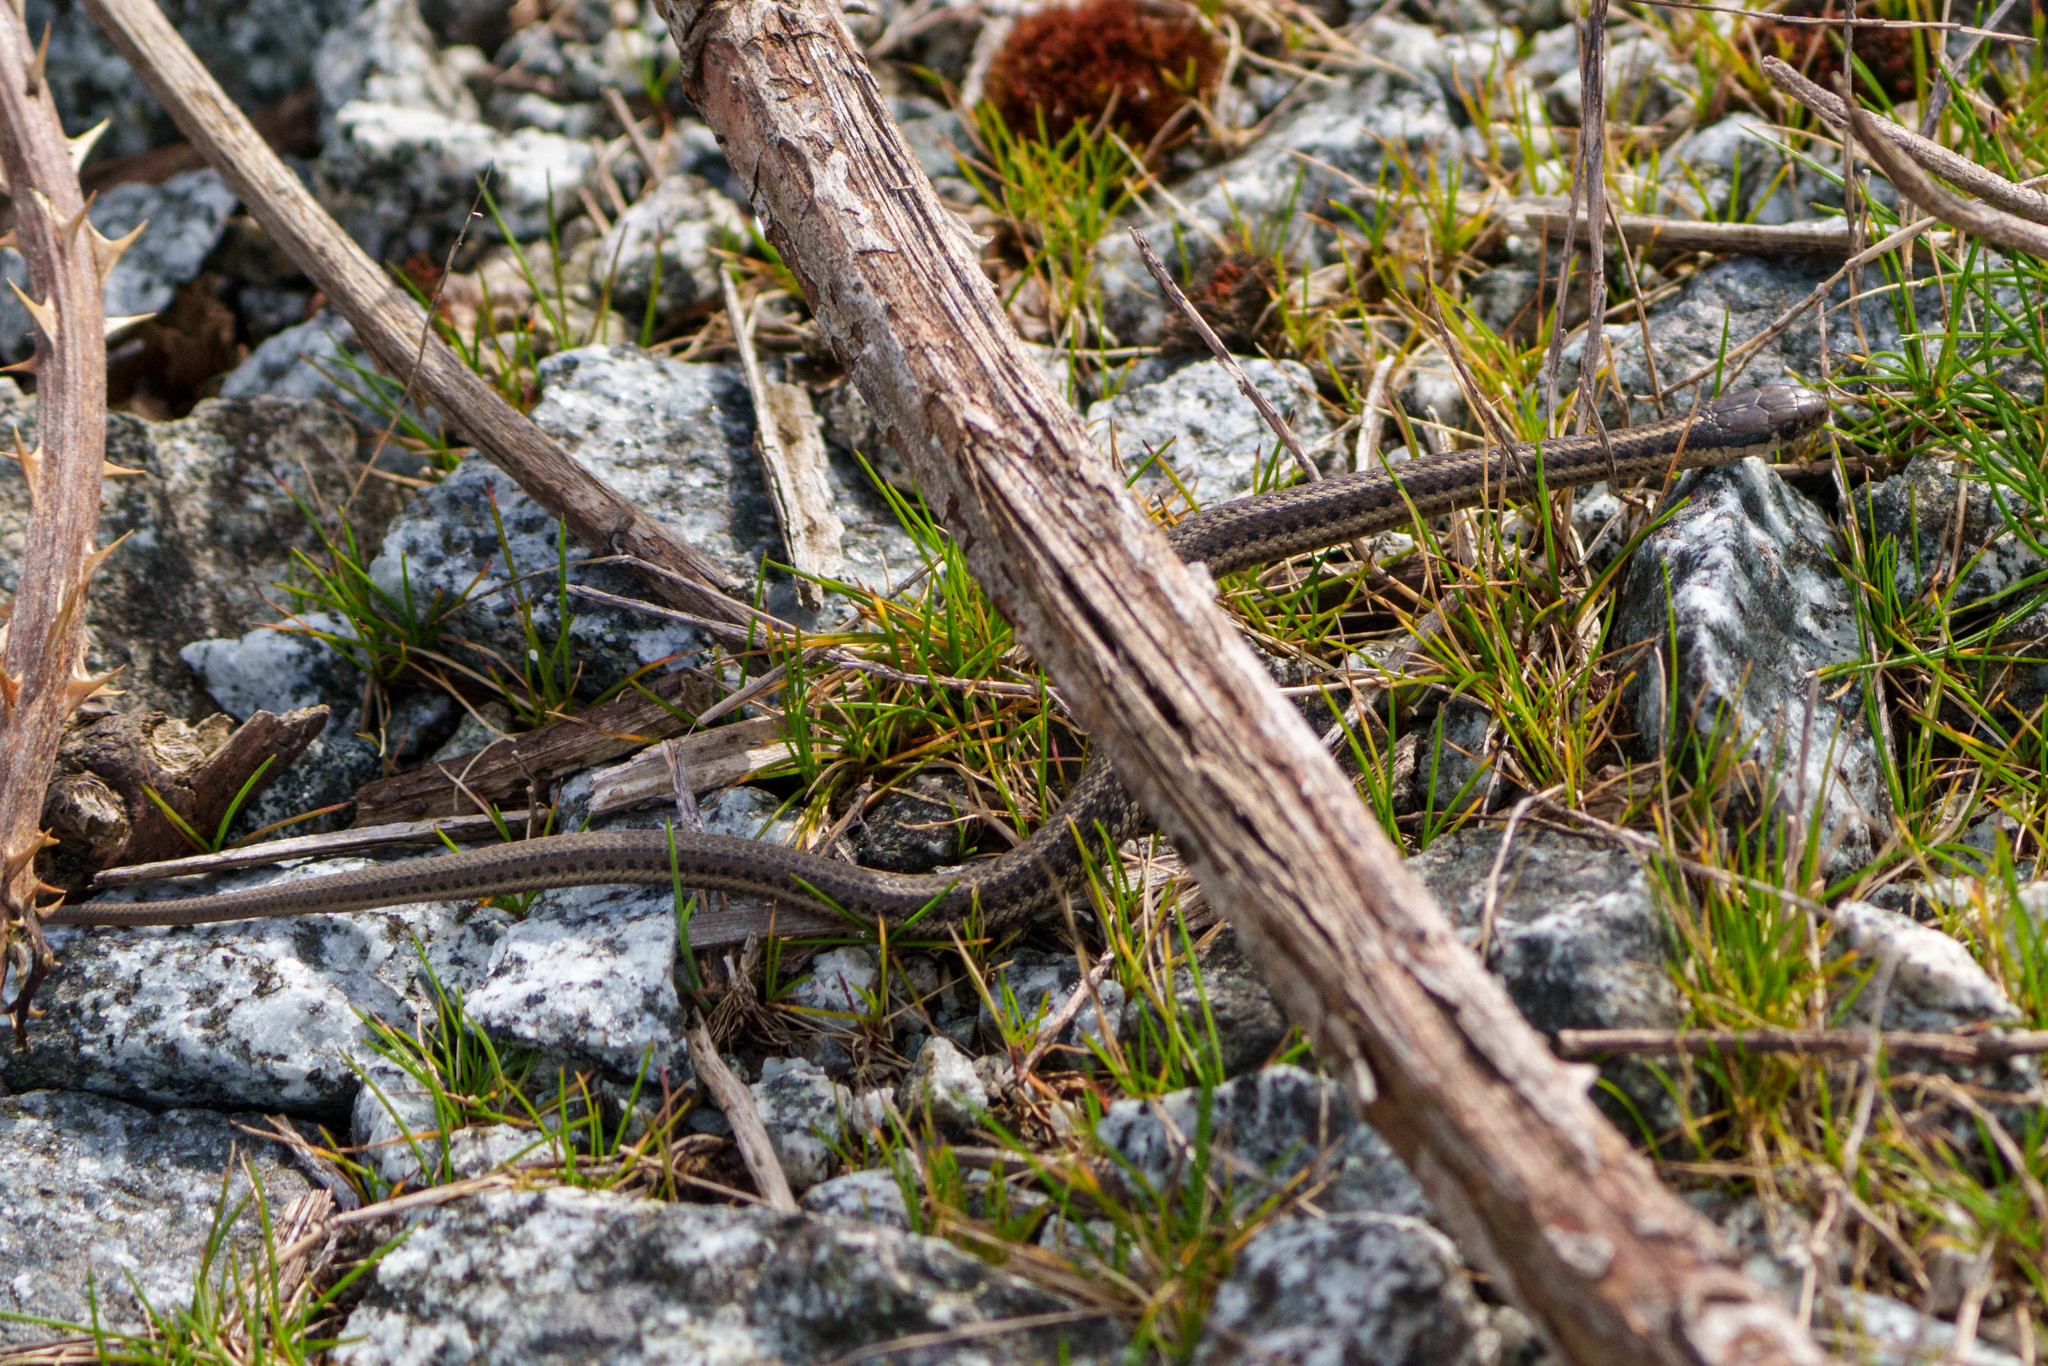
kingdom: Animalia
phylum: Chordata
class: Squamata
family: Colubridae
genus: Thamnophis
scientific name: Thamnophis ordinoides
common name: Northwestern garter snake
